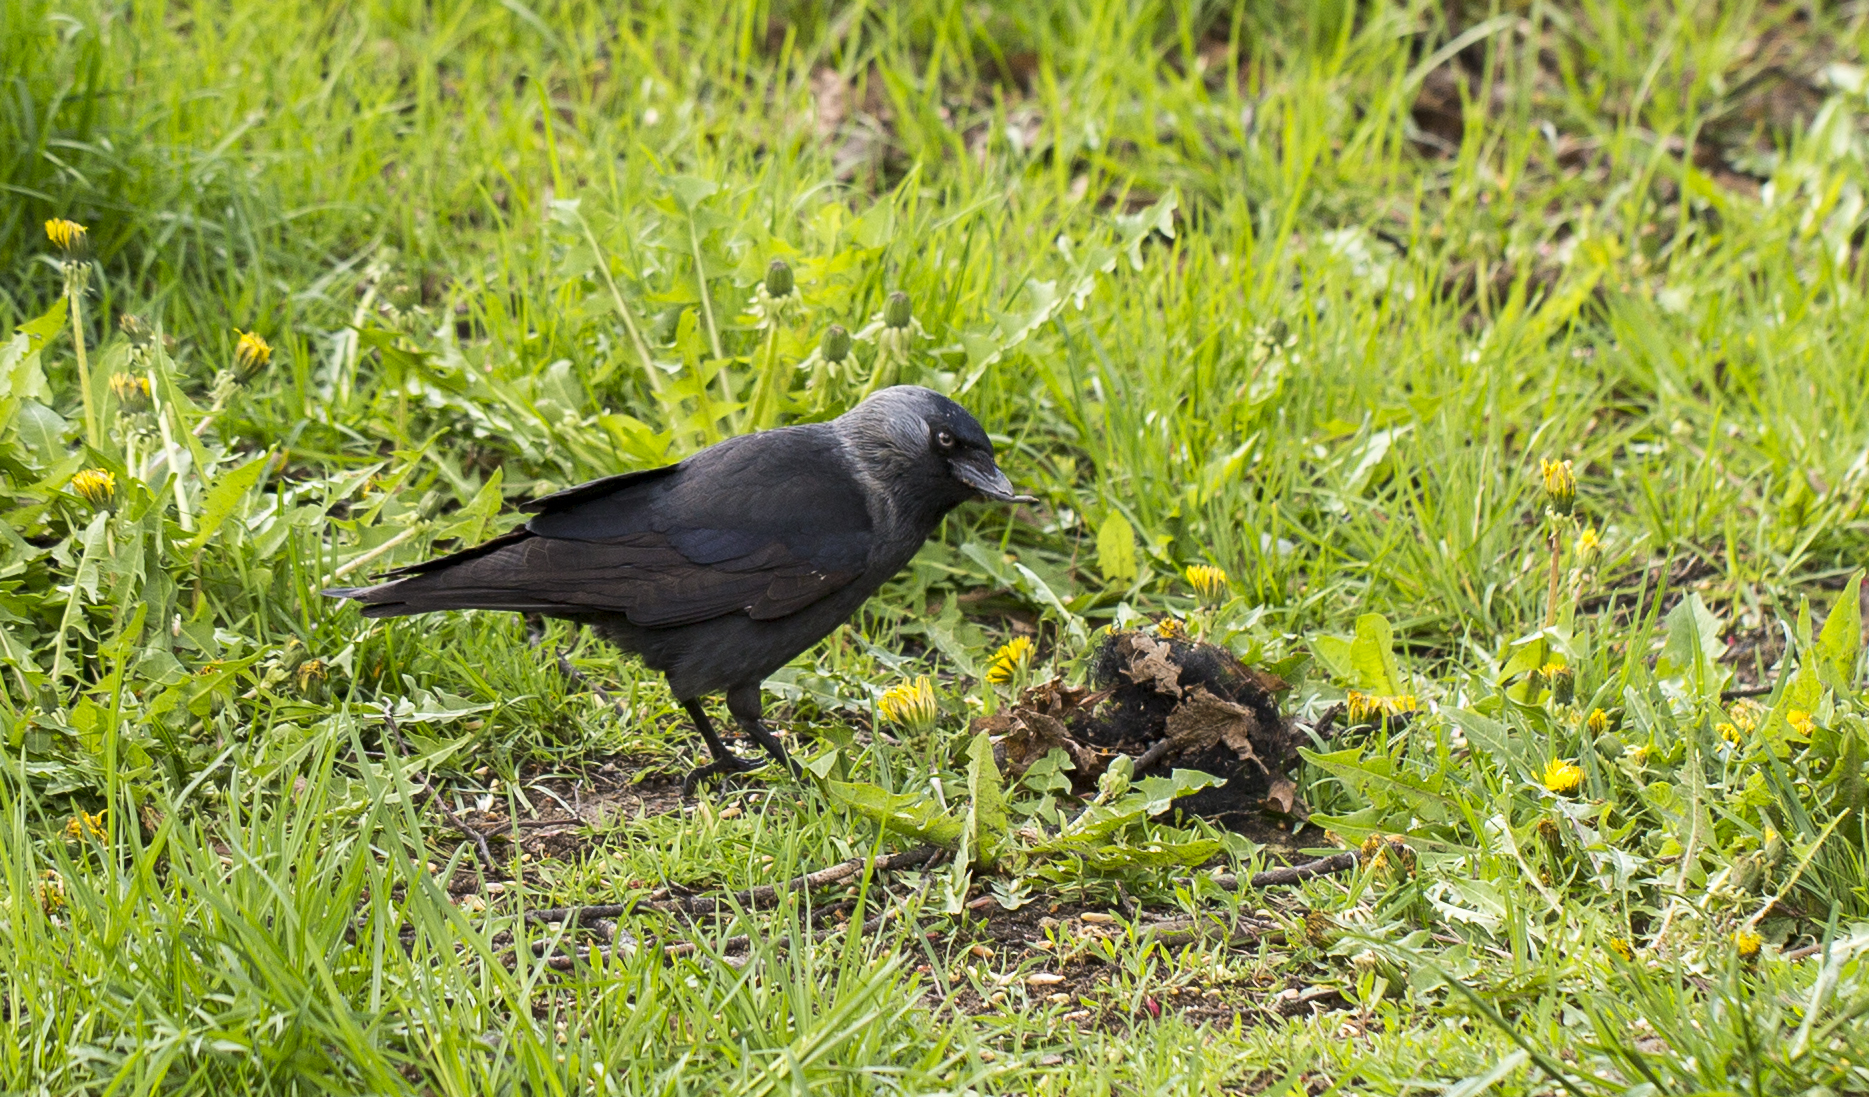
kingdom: Animalia
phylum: Chordata
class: Aves
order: Passeriformes
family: Corvidae
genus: Coloeus
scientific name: Coloeus monedula
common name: Western jackdaw
